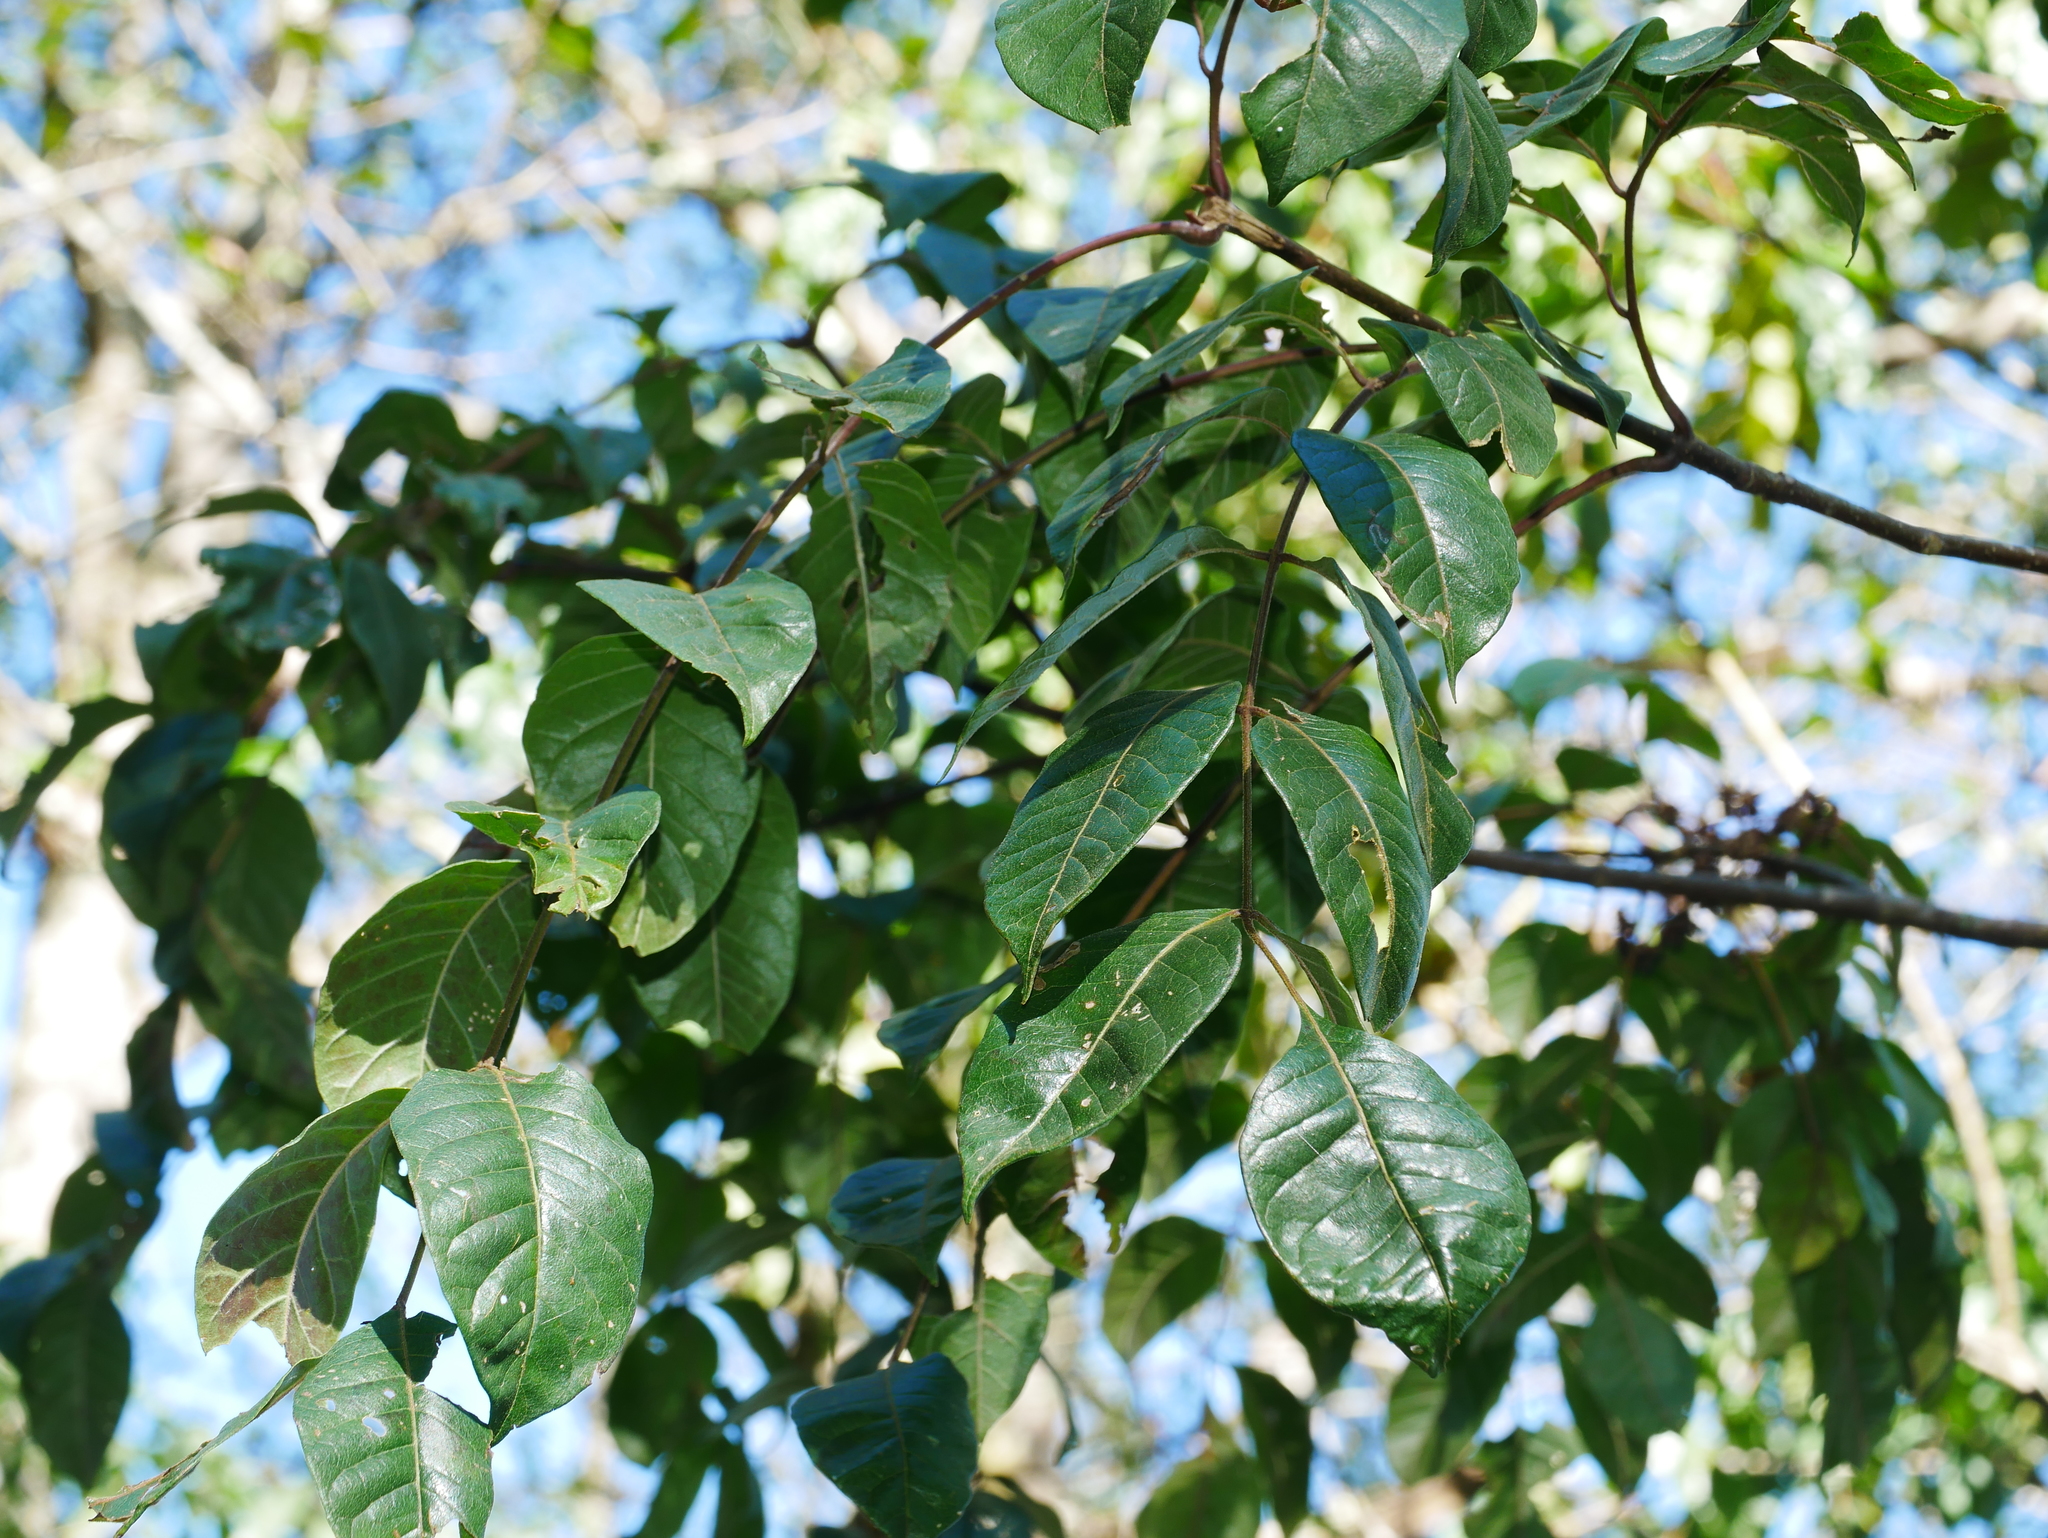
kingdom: Plantae
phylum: Tracheophyta
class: Magnoliopsida
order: Sapindales
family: Rutaceae
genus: Tetradium
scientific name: Tetradium ruticarpum
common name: Evodia
